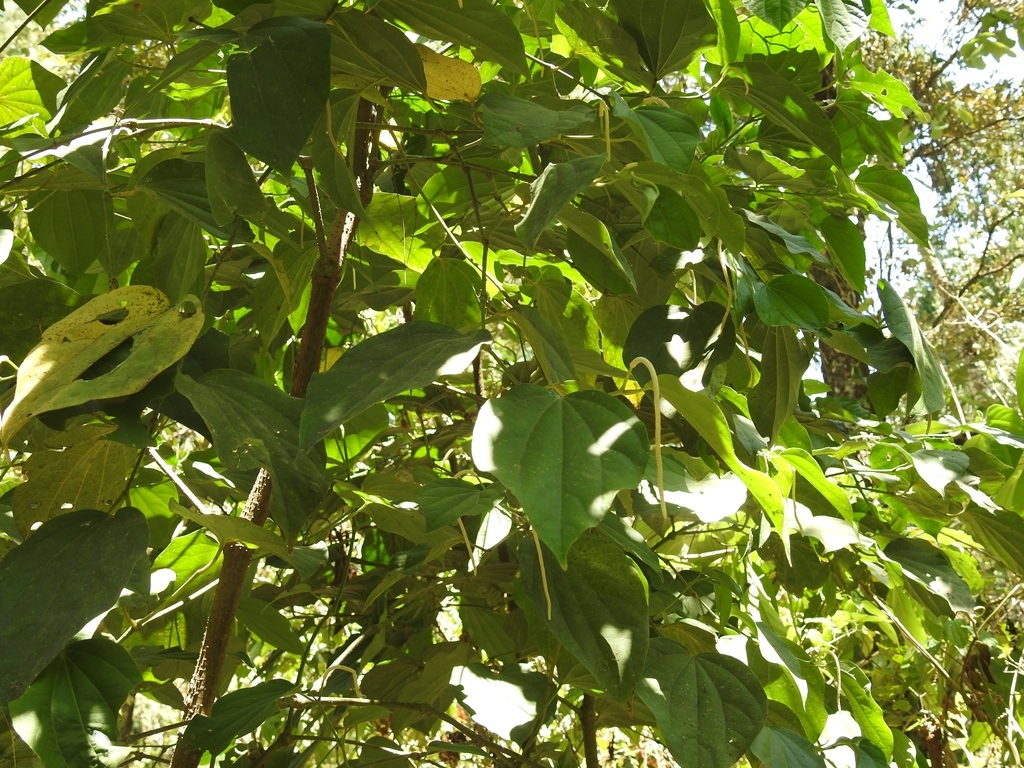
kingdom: Plantae
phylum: Tracheophyta
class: Magnoliopsida
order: Piperales
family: Piperaceae
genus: Piper
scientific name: Piper marginatum
